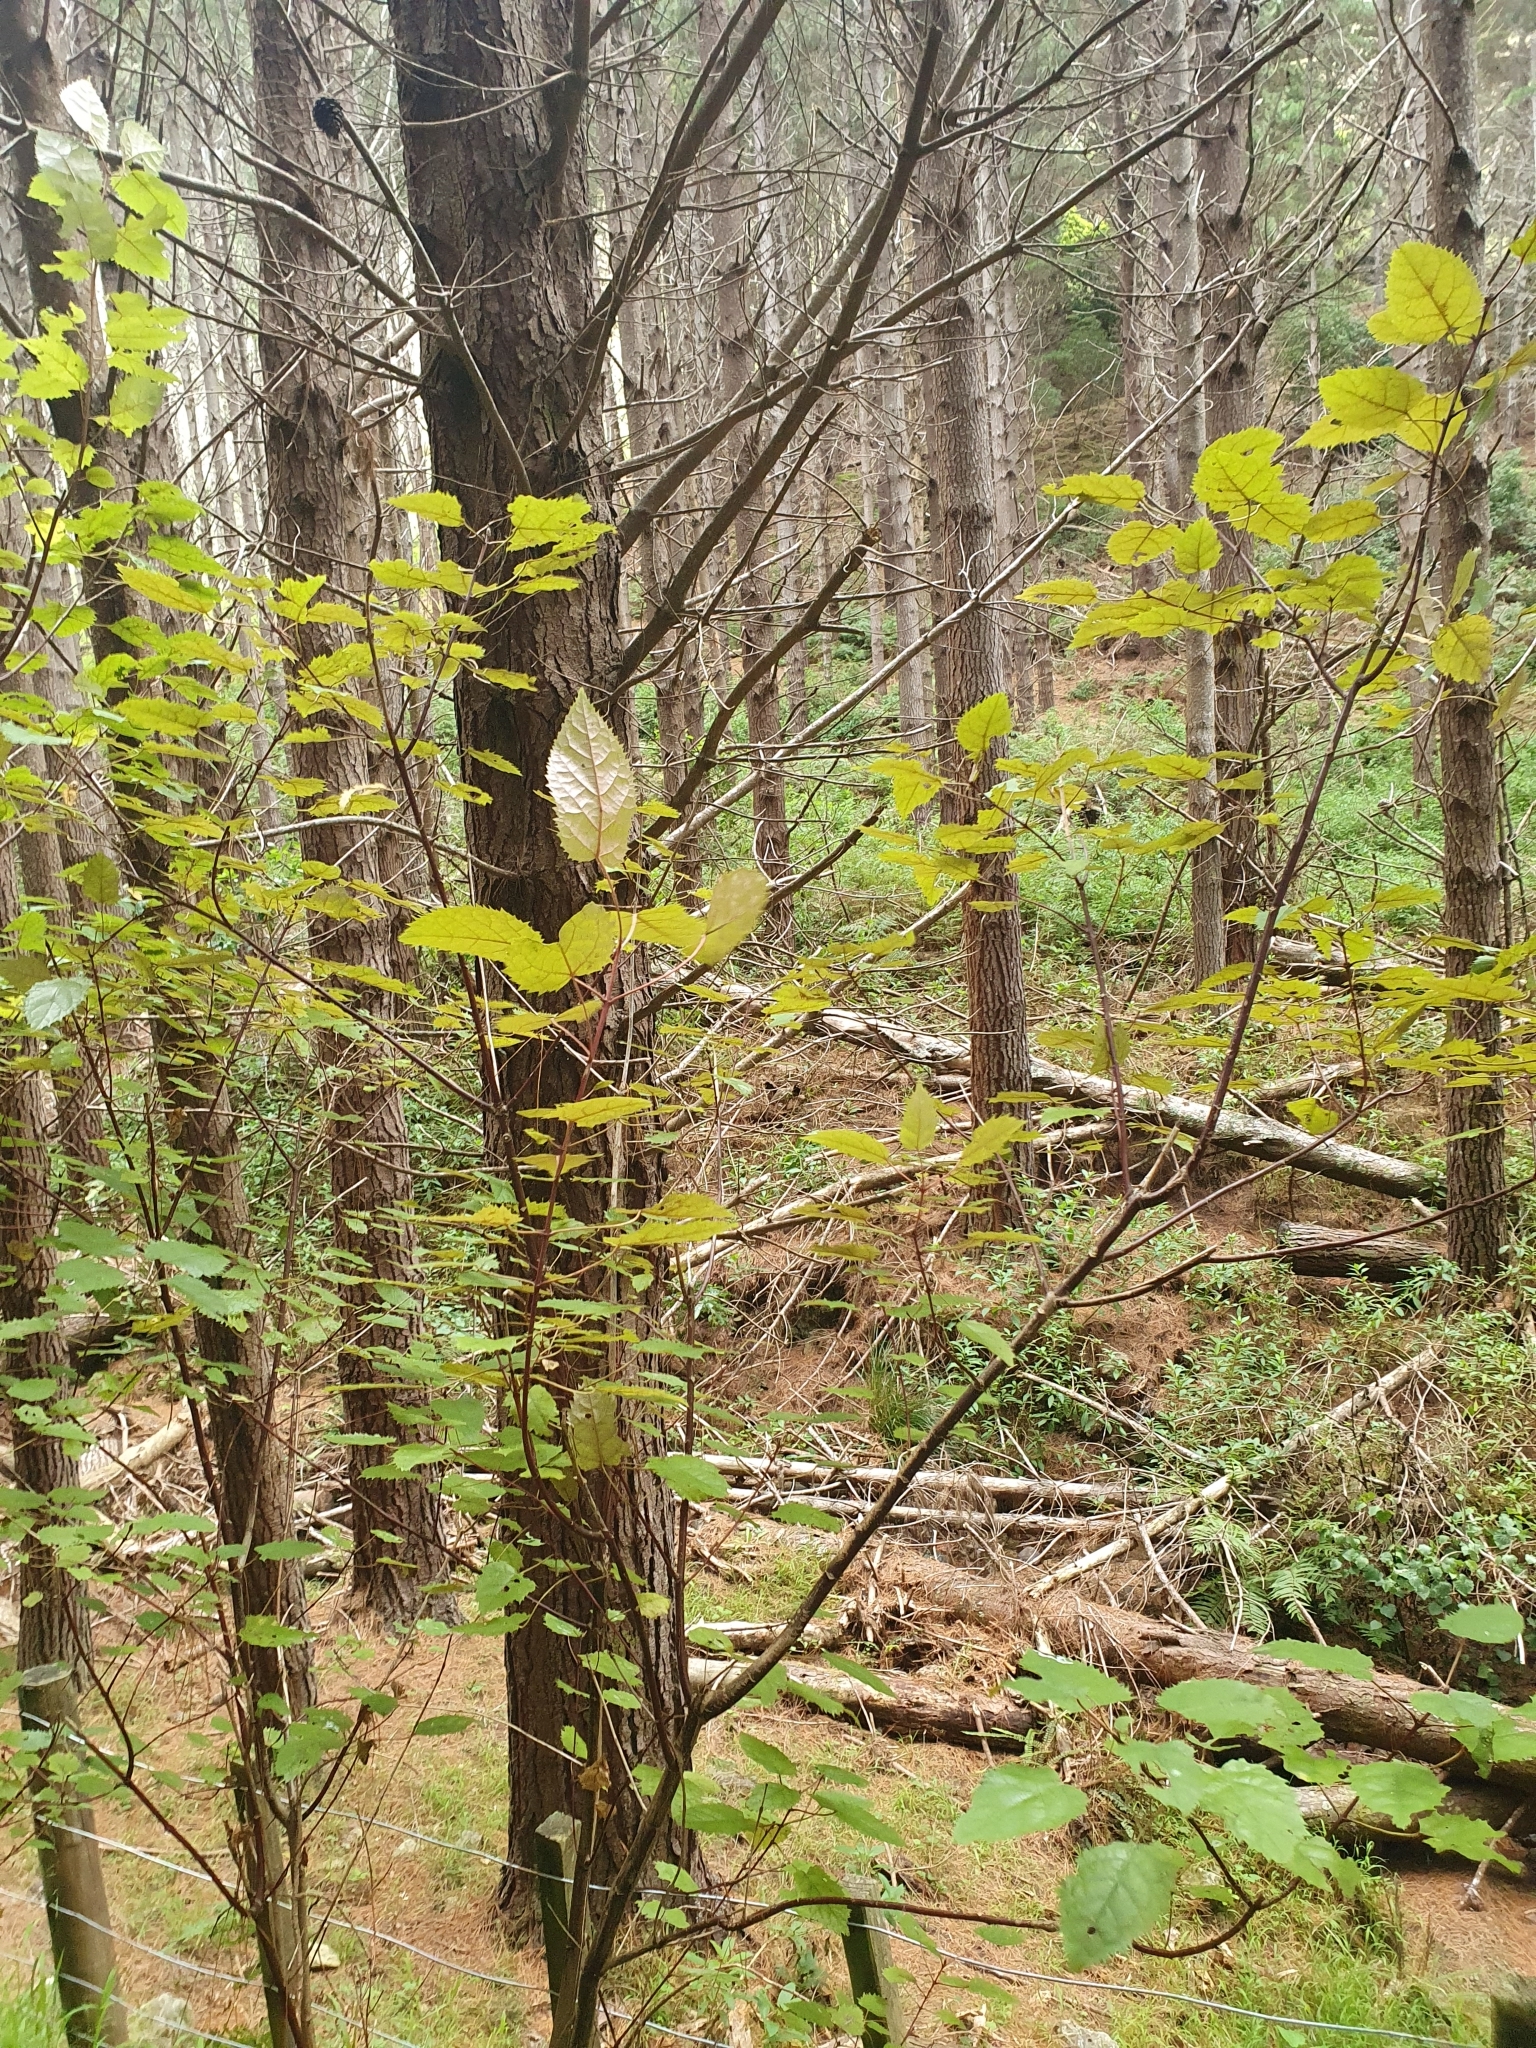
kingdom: Plantae
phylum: Tracheophyta
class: Magnoliopsida
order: Oxalidales
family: Elaeocarpaceae
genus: Aristotelia
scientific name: Aristotelia serrata
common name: New zealand wineberry
